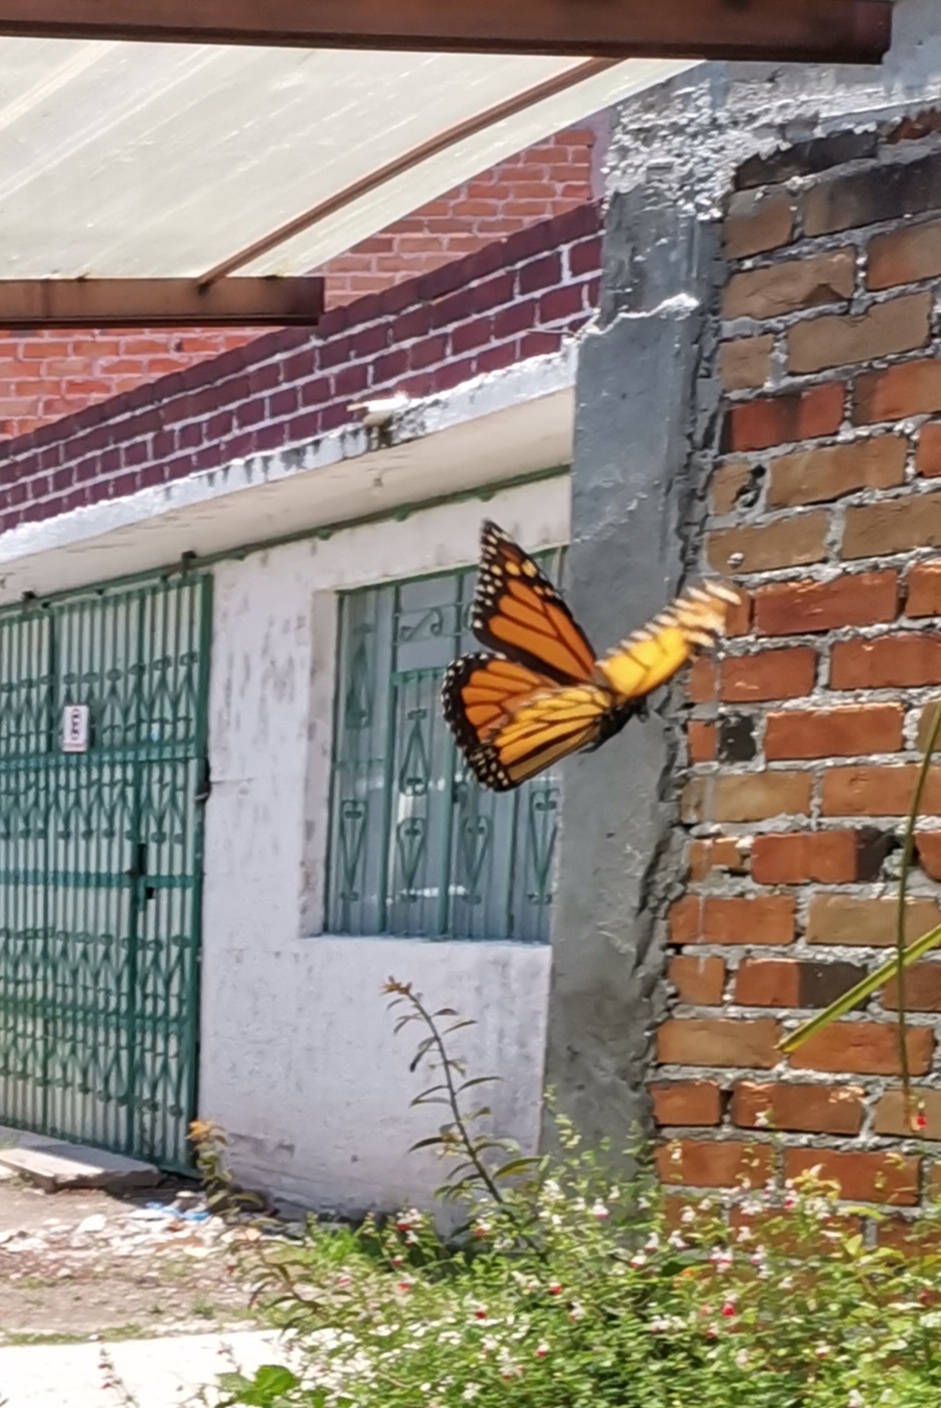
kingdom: Animalia
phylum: Arthropoda
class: Insecta
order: Lepidoptera
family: Nymphalidae
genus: Danaus
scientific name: Danaus plexippus
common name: Monarch
